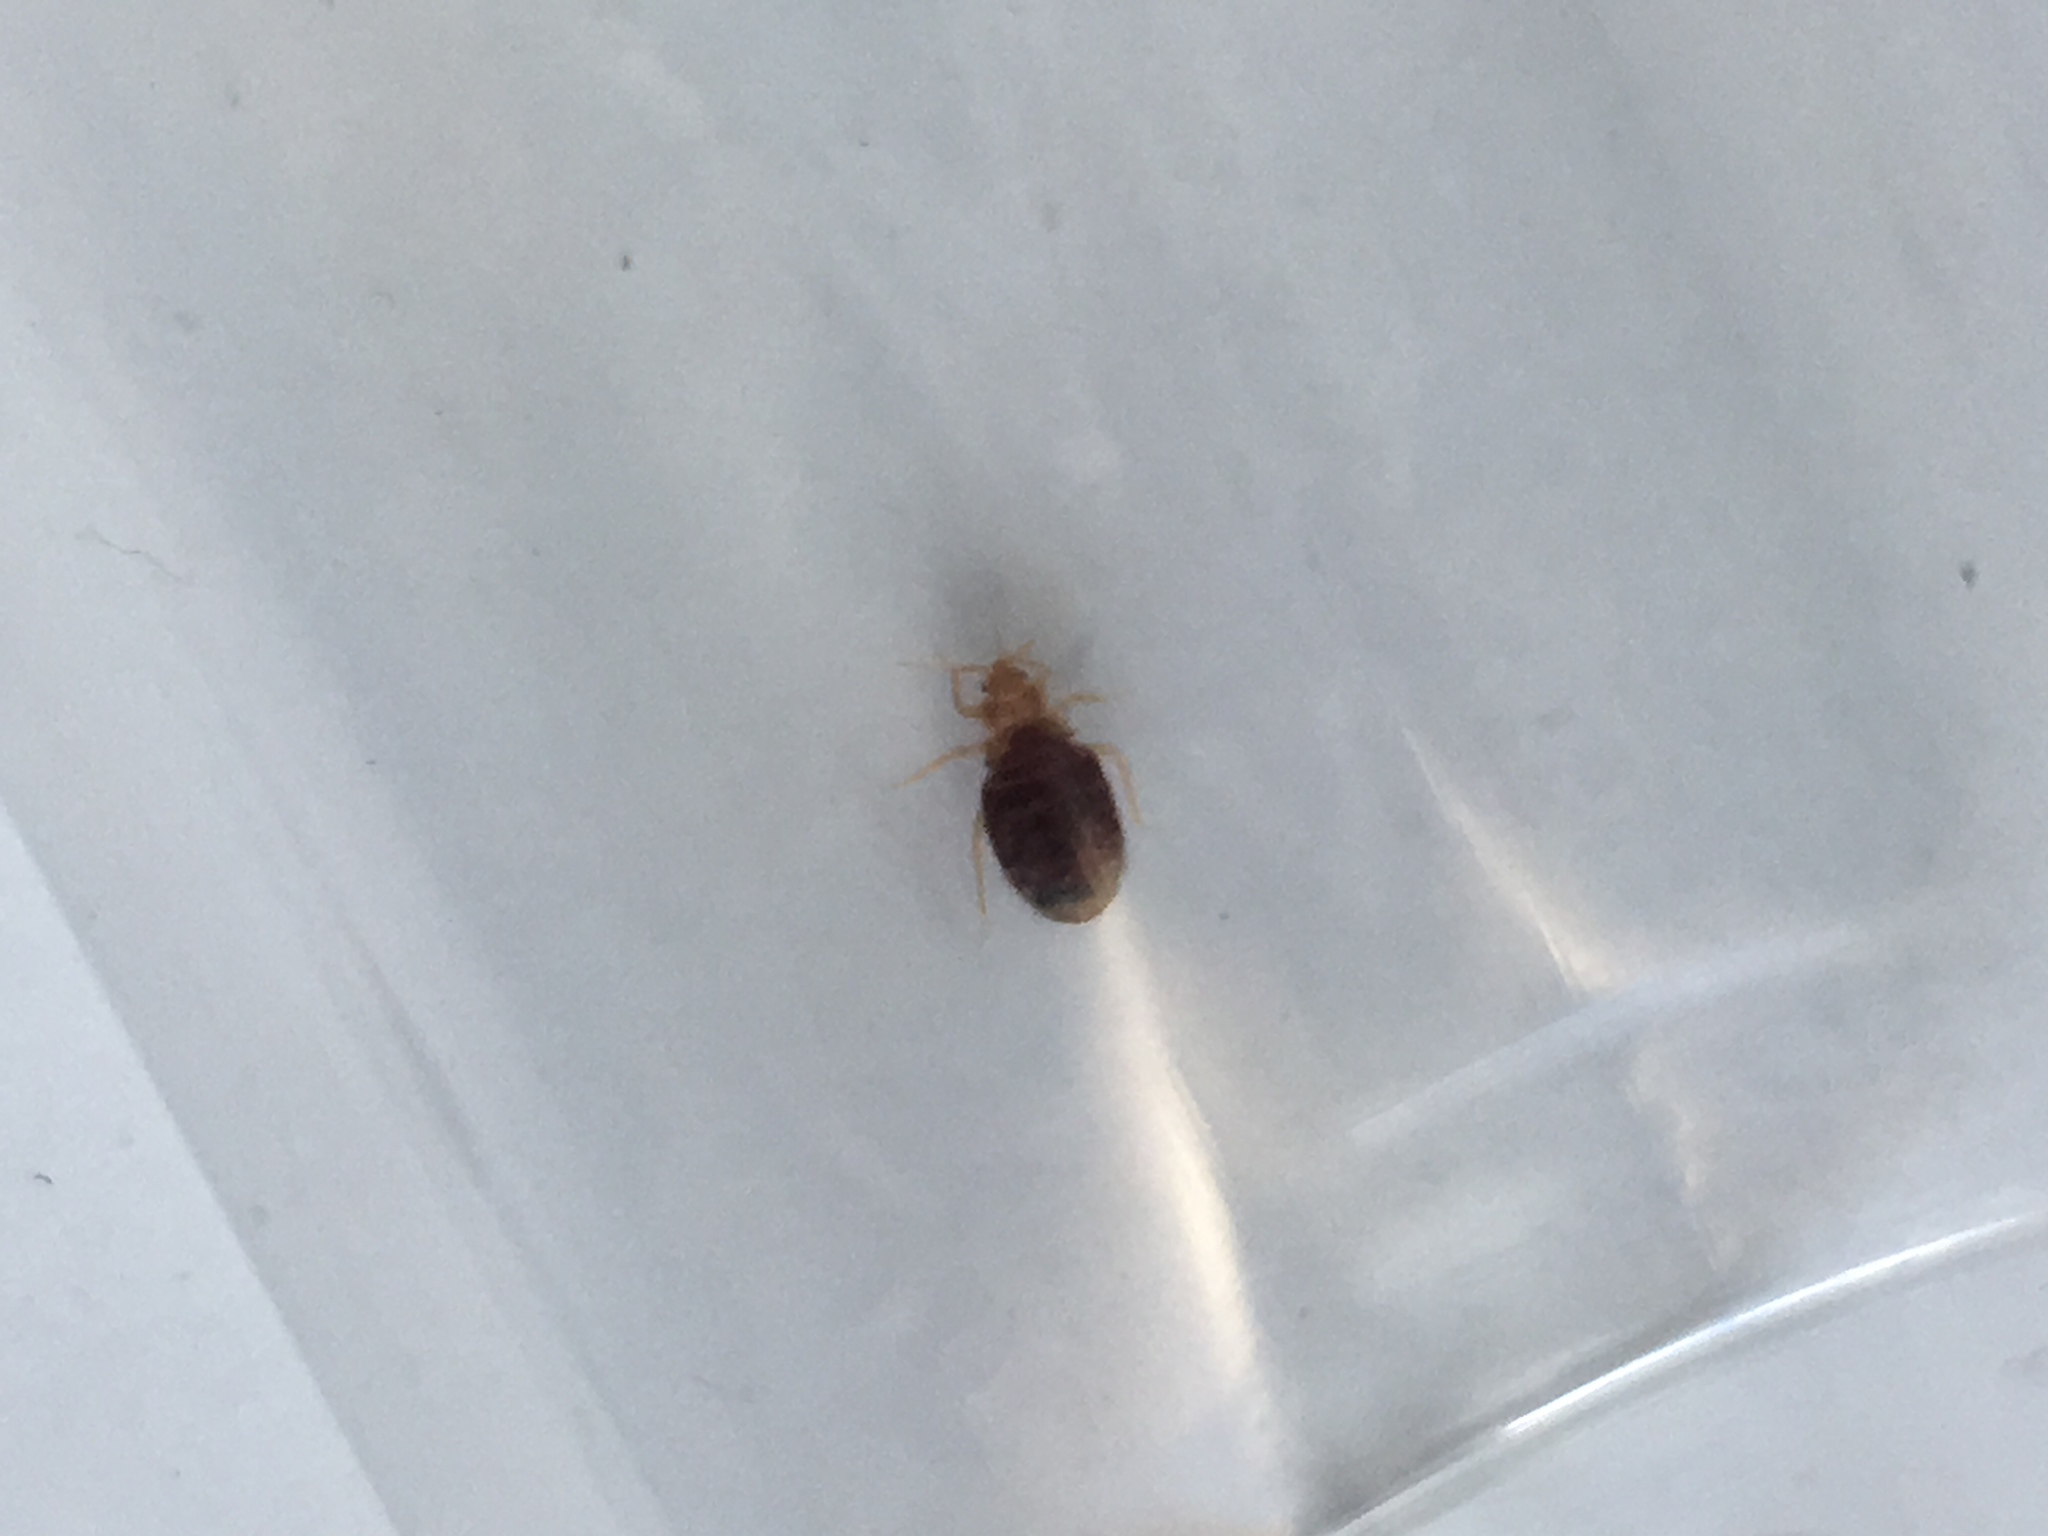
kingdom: Animalia
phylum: Arthropoda
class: Insecta
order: Hemiptera
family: Cimicidae
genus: Cimex
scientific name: Cimex lectularius
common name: Bed bug
